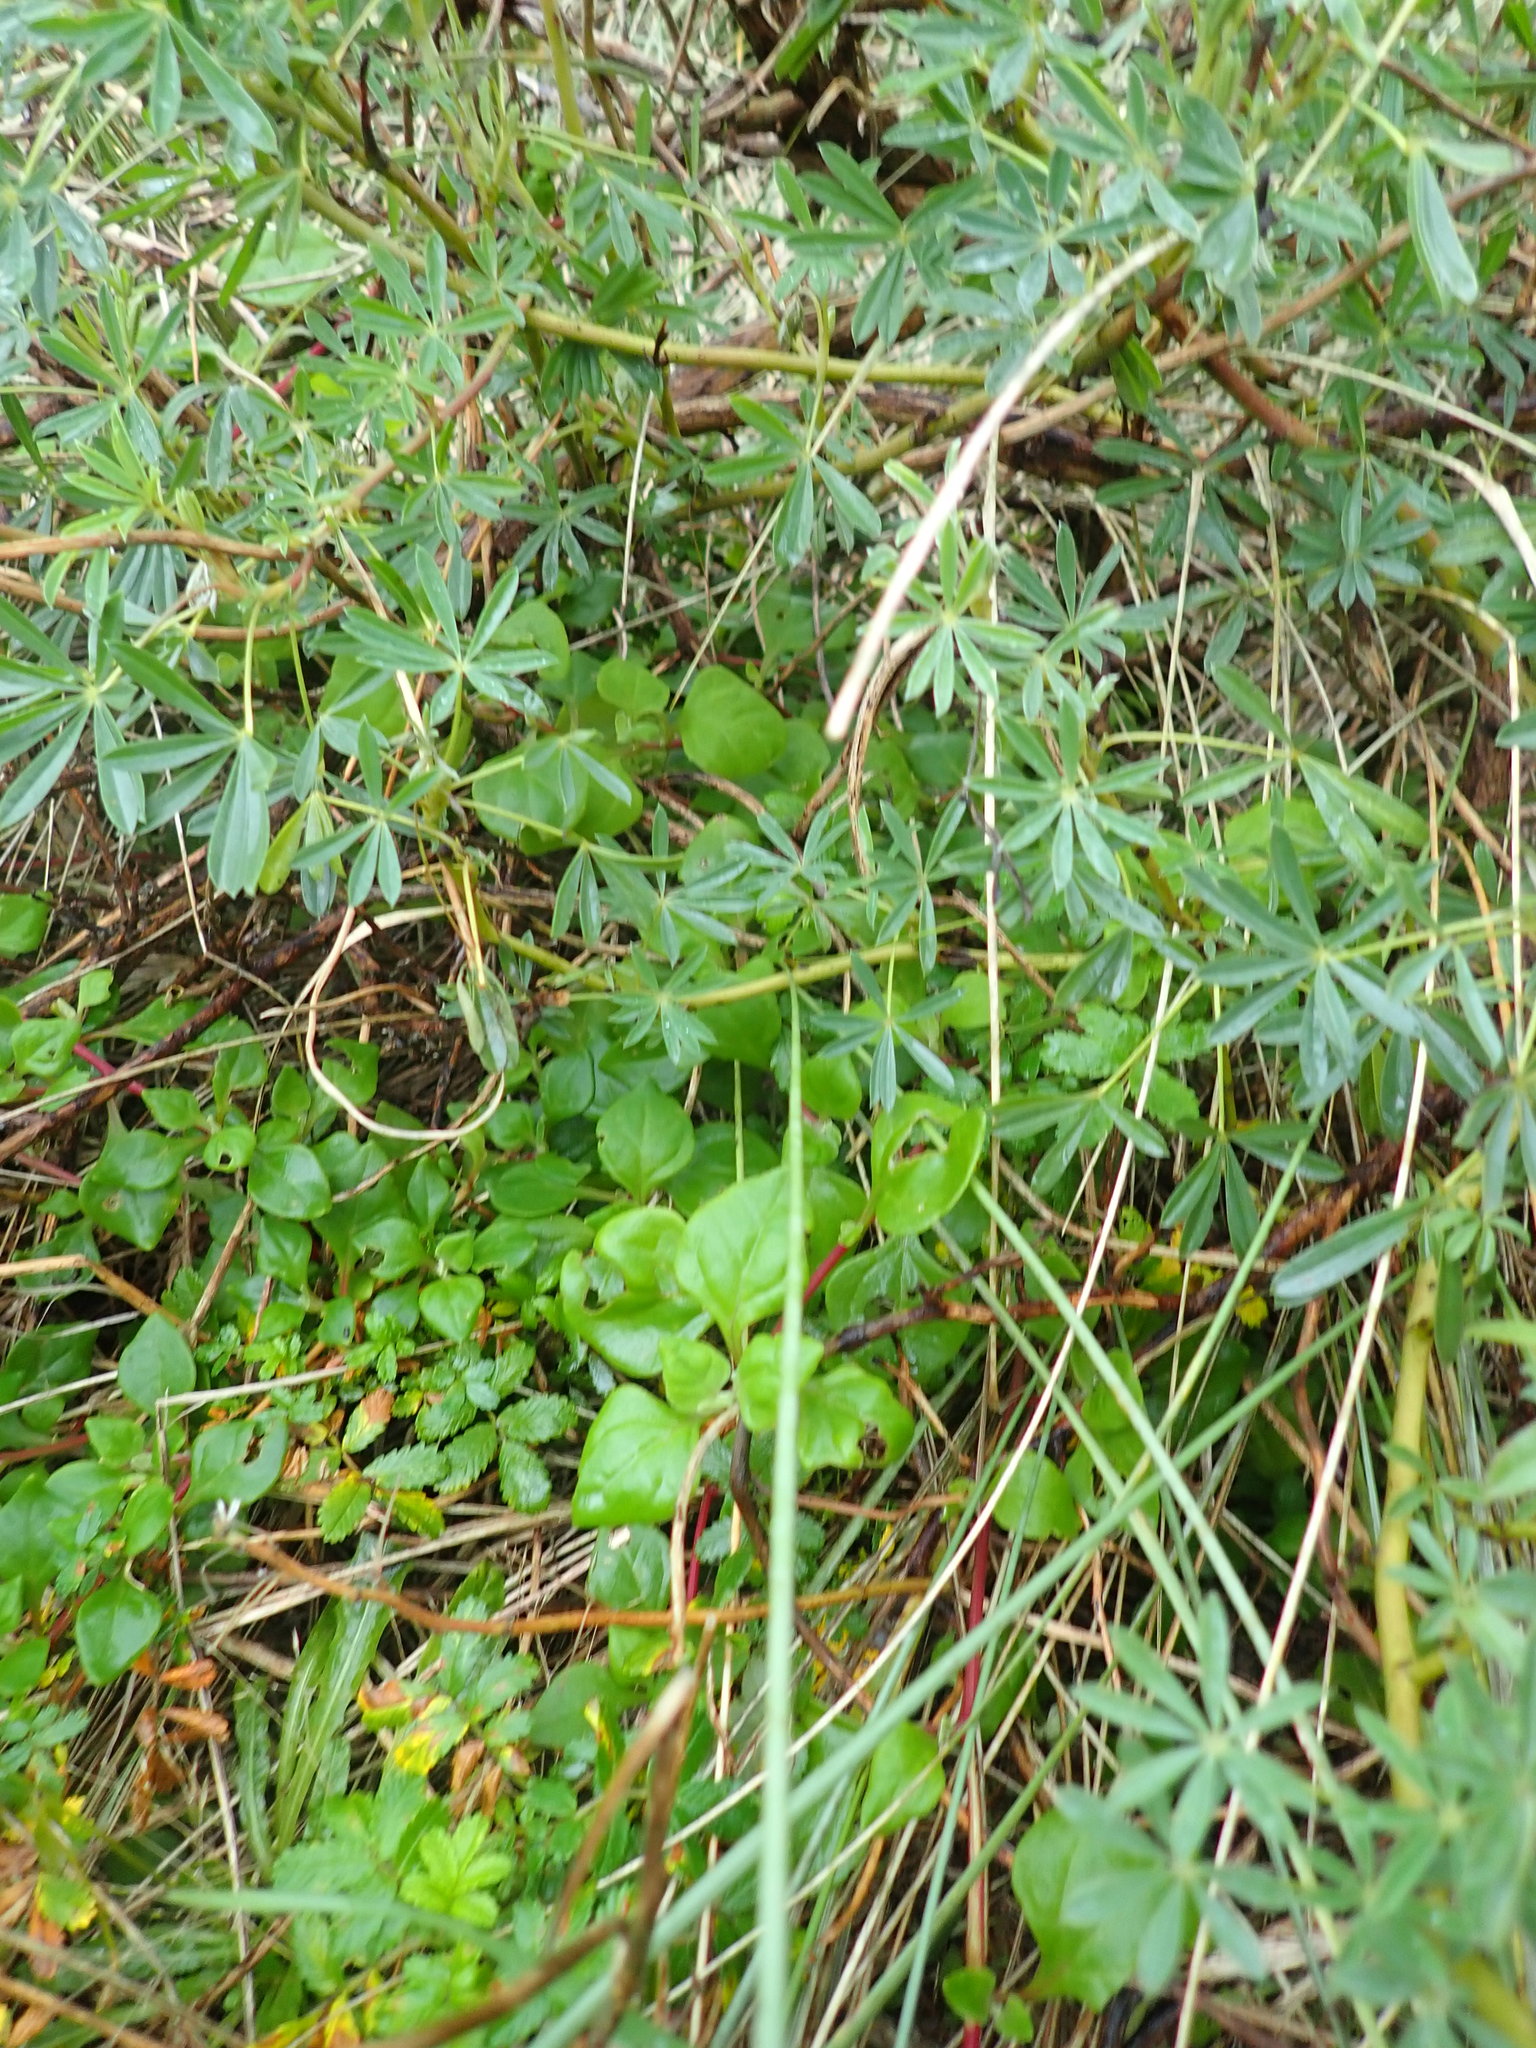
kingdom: Plantae
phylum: Tracheophyta
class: Magnoliopsida
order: Caryophyllales
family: Aizoaceae
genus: Tetragonia
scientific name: Tetragonia implexicoma
